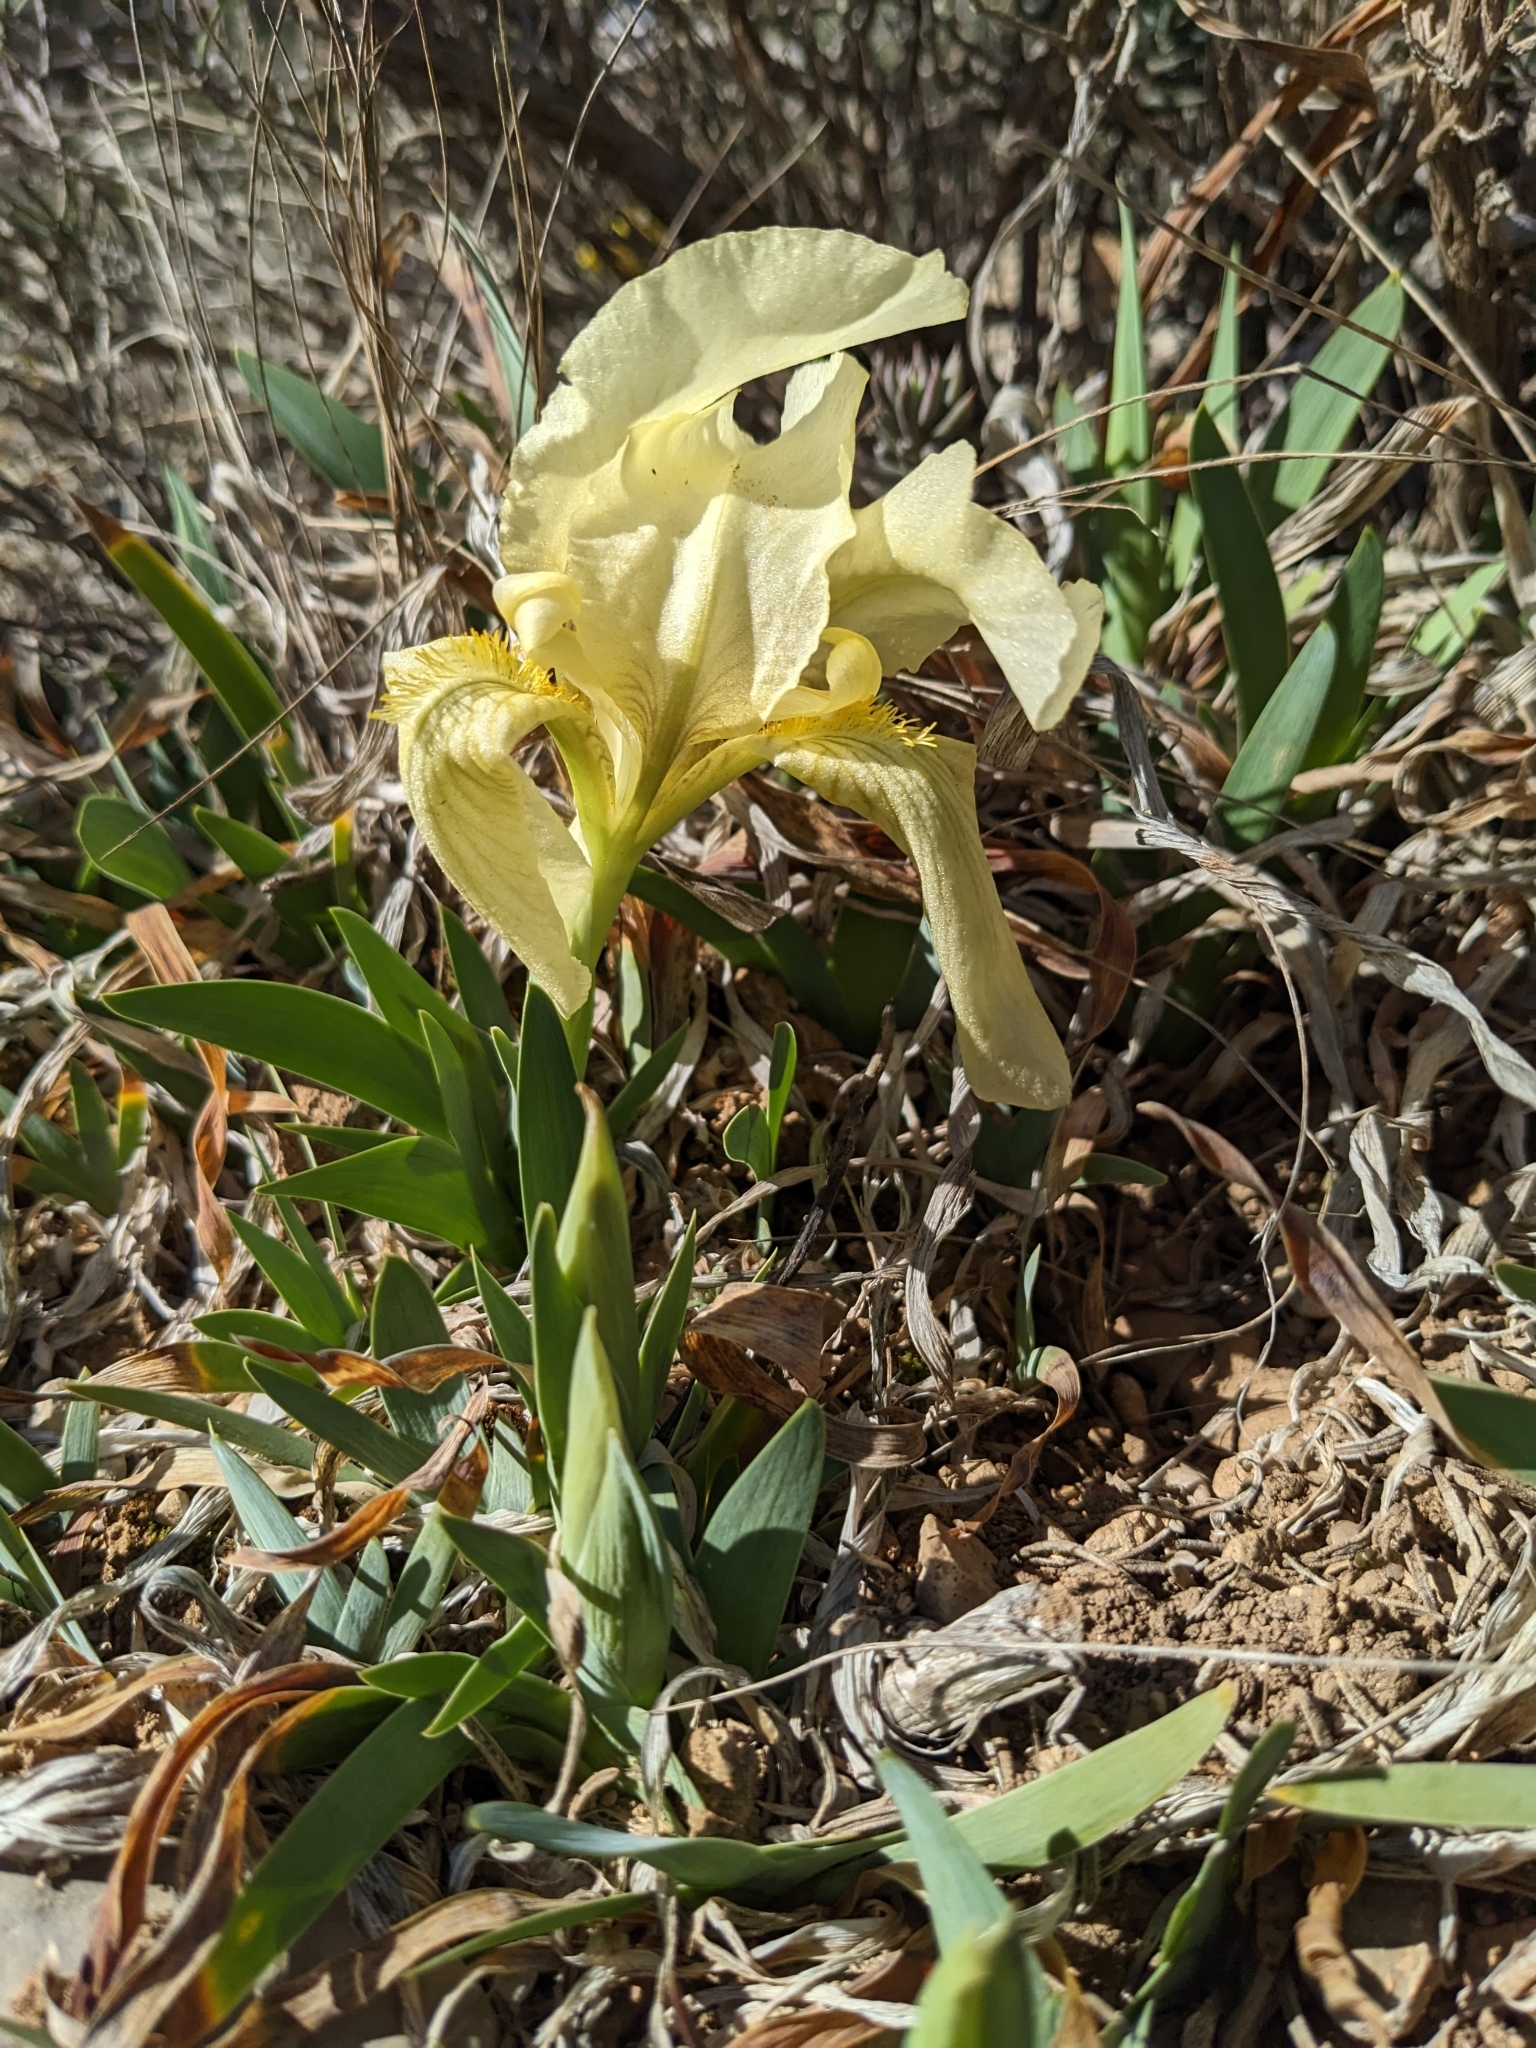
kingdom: Plantae
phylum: Tracheophyta
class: Liliopsida
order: Asparagales
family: Iridaceae
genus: Iris
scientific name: Iris lutescens
